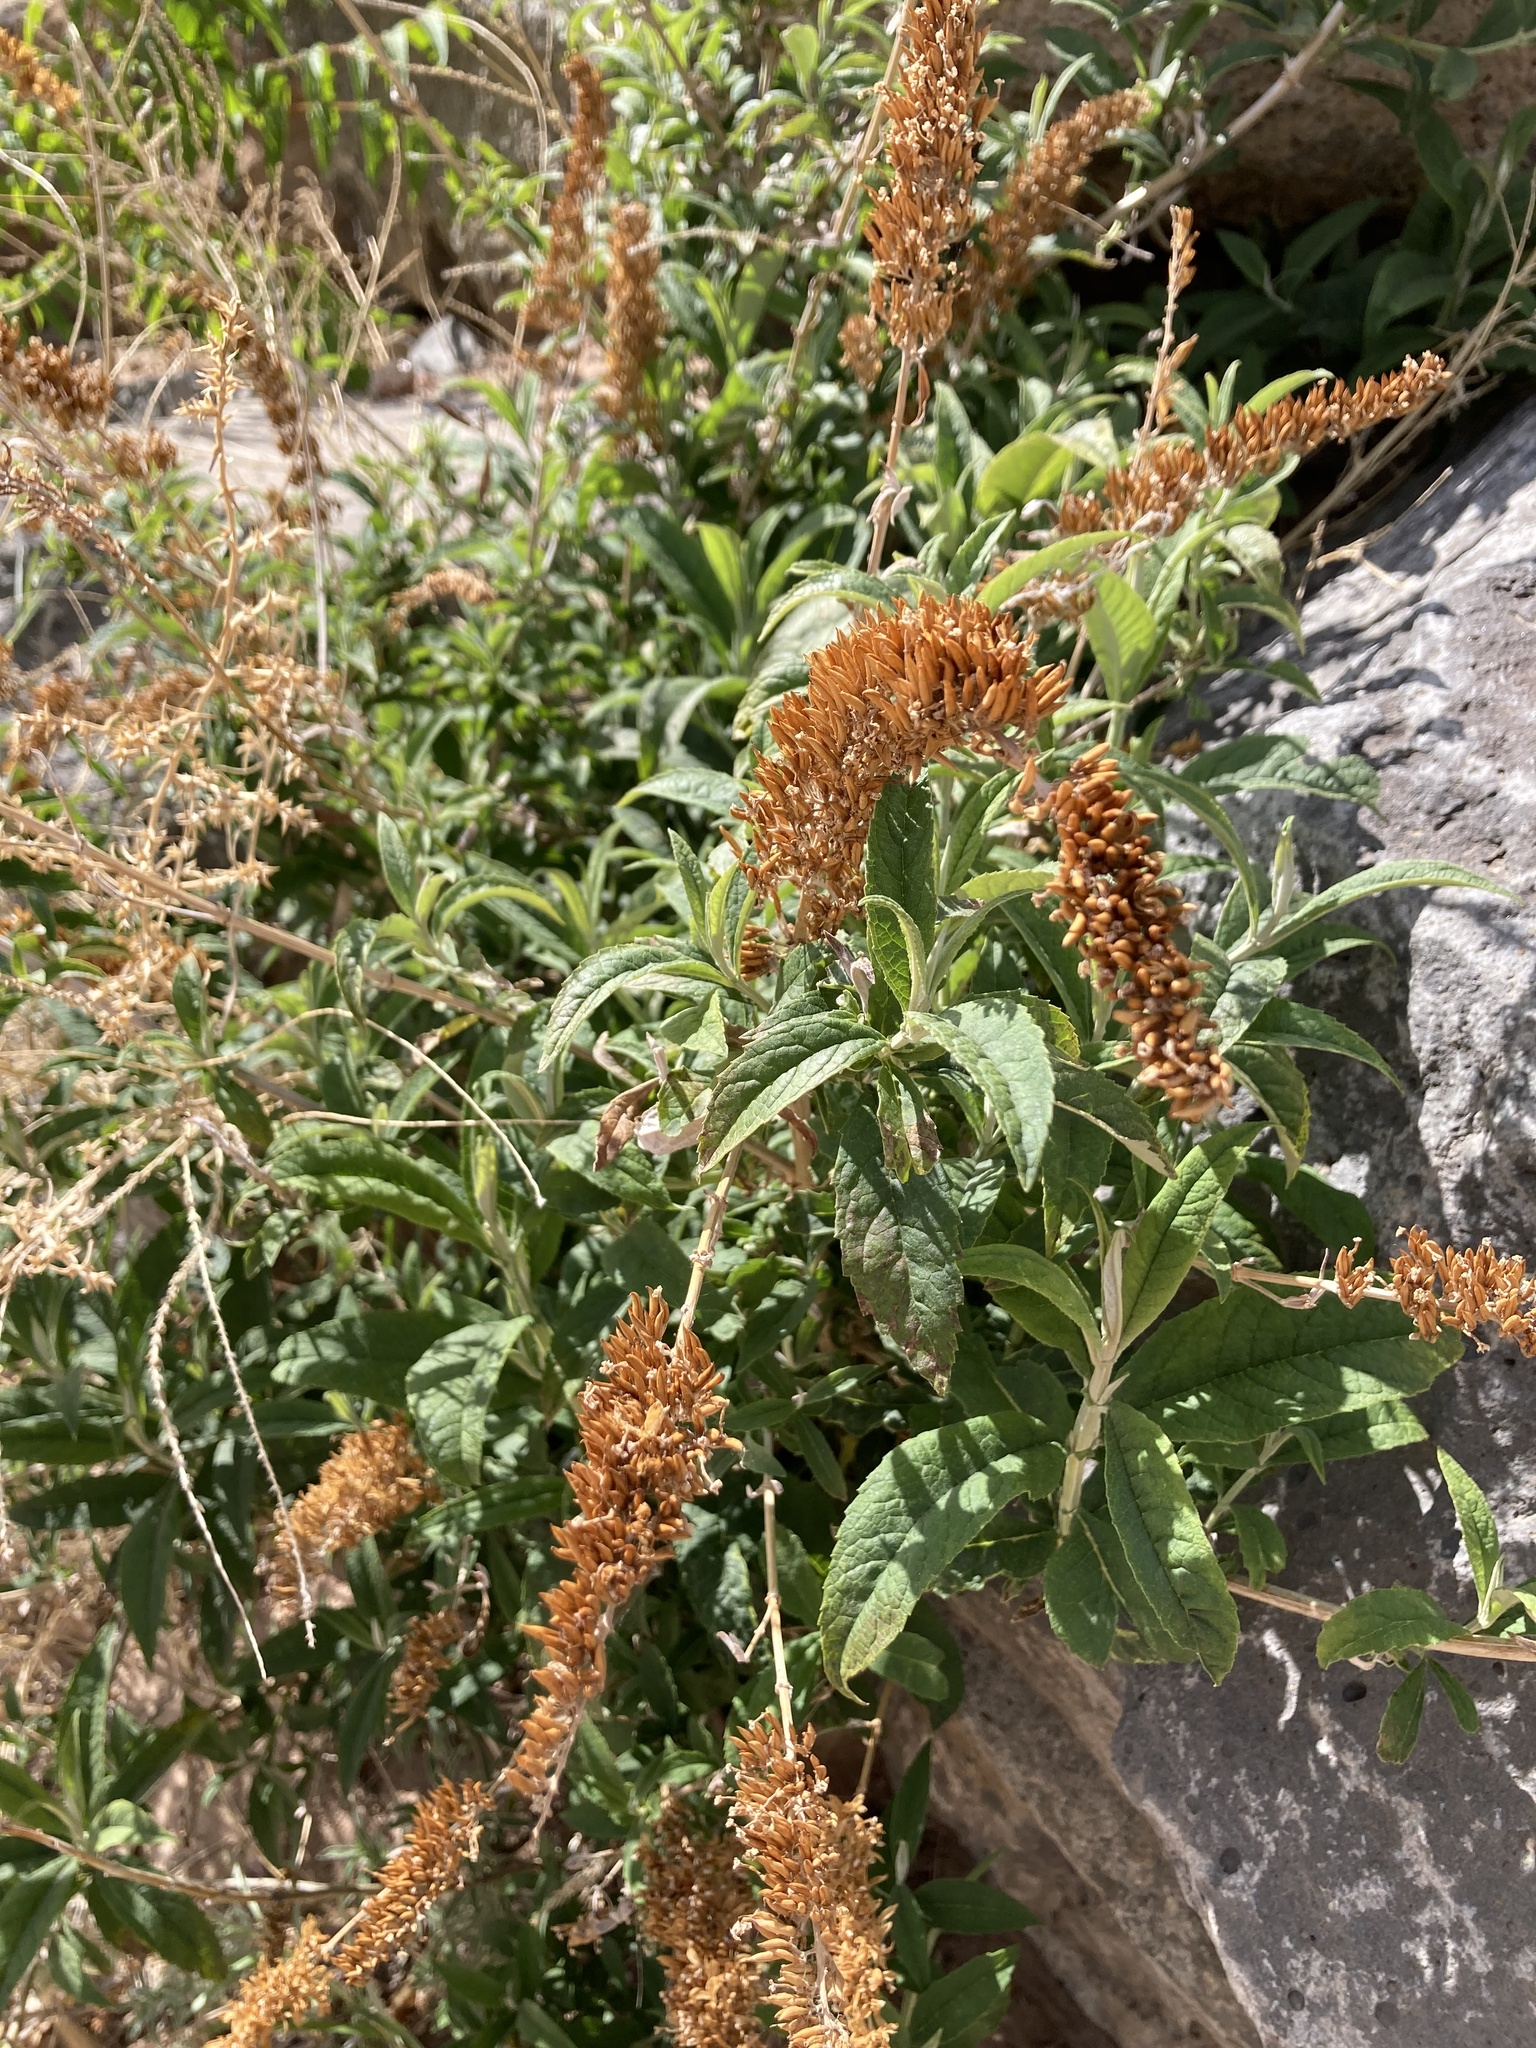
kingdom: Plantae
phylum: Tracheophyta
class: Magnoliopsida
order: Lamiales
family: Scrophulariaceae
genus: Buddleja
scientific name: Buddleja davidii
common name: Butterfly-bush
